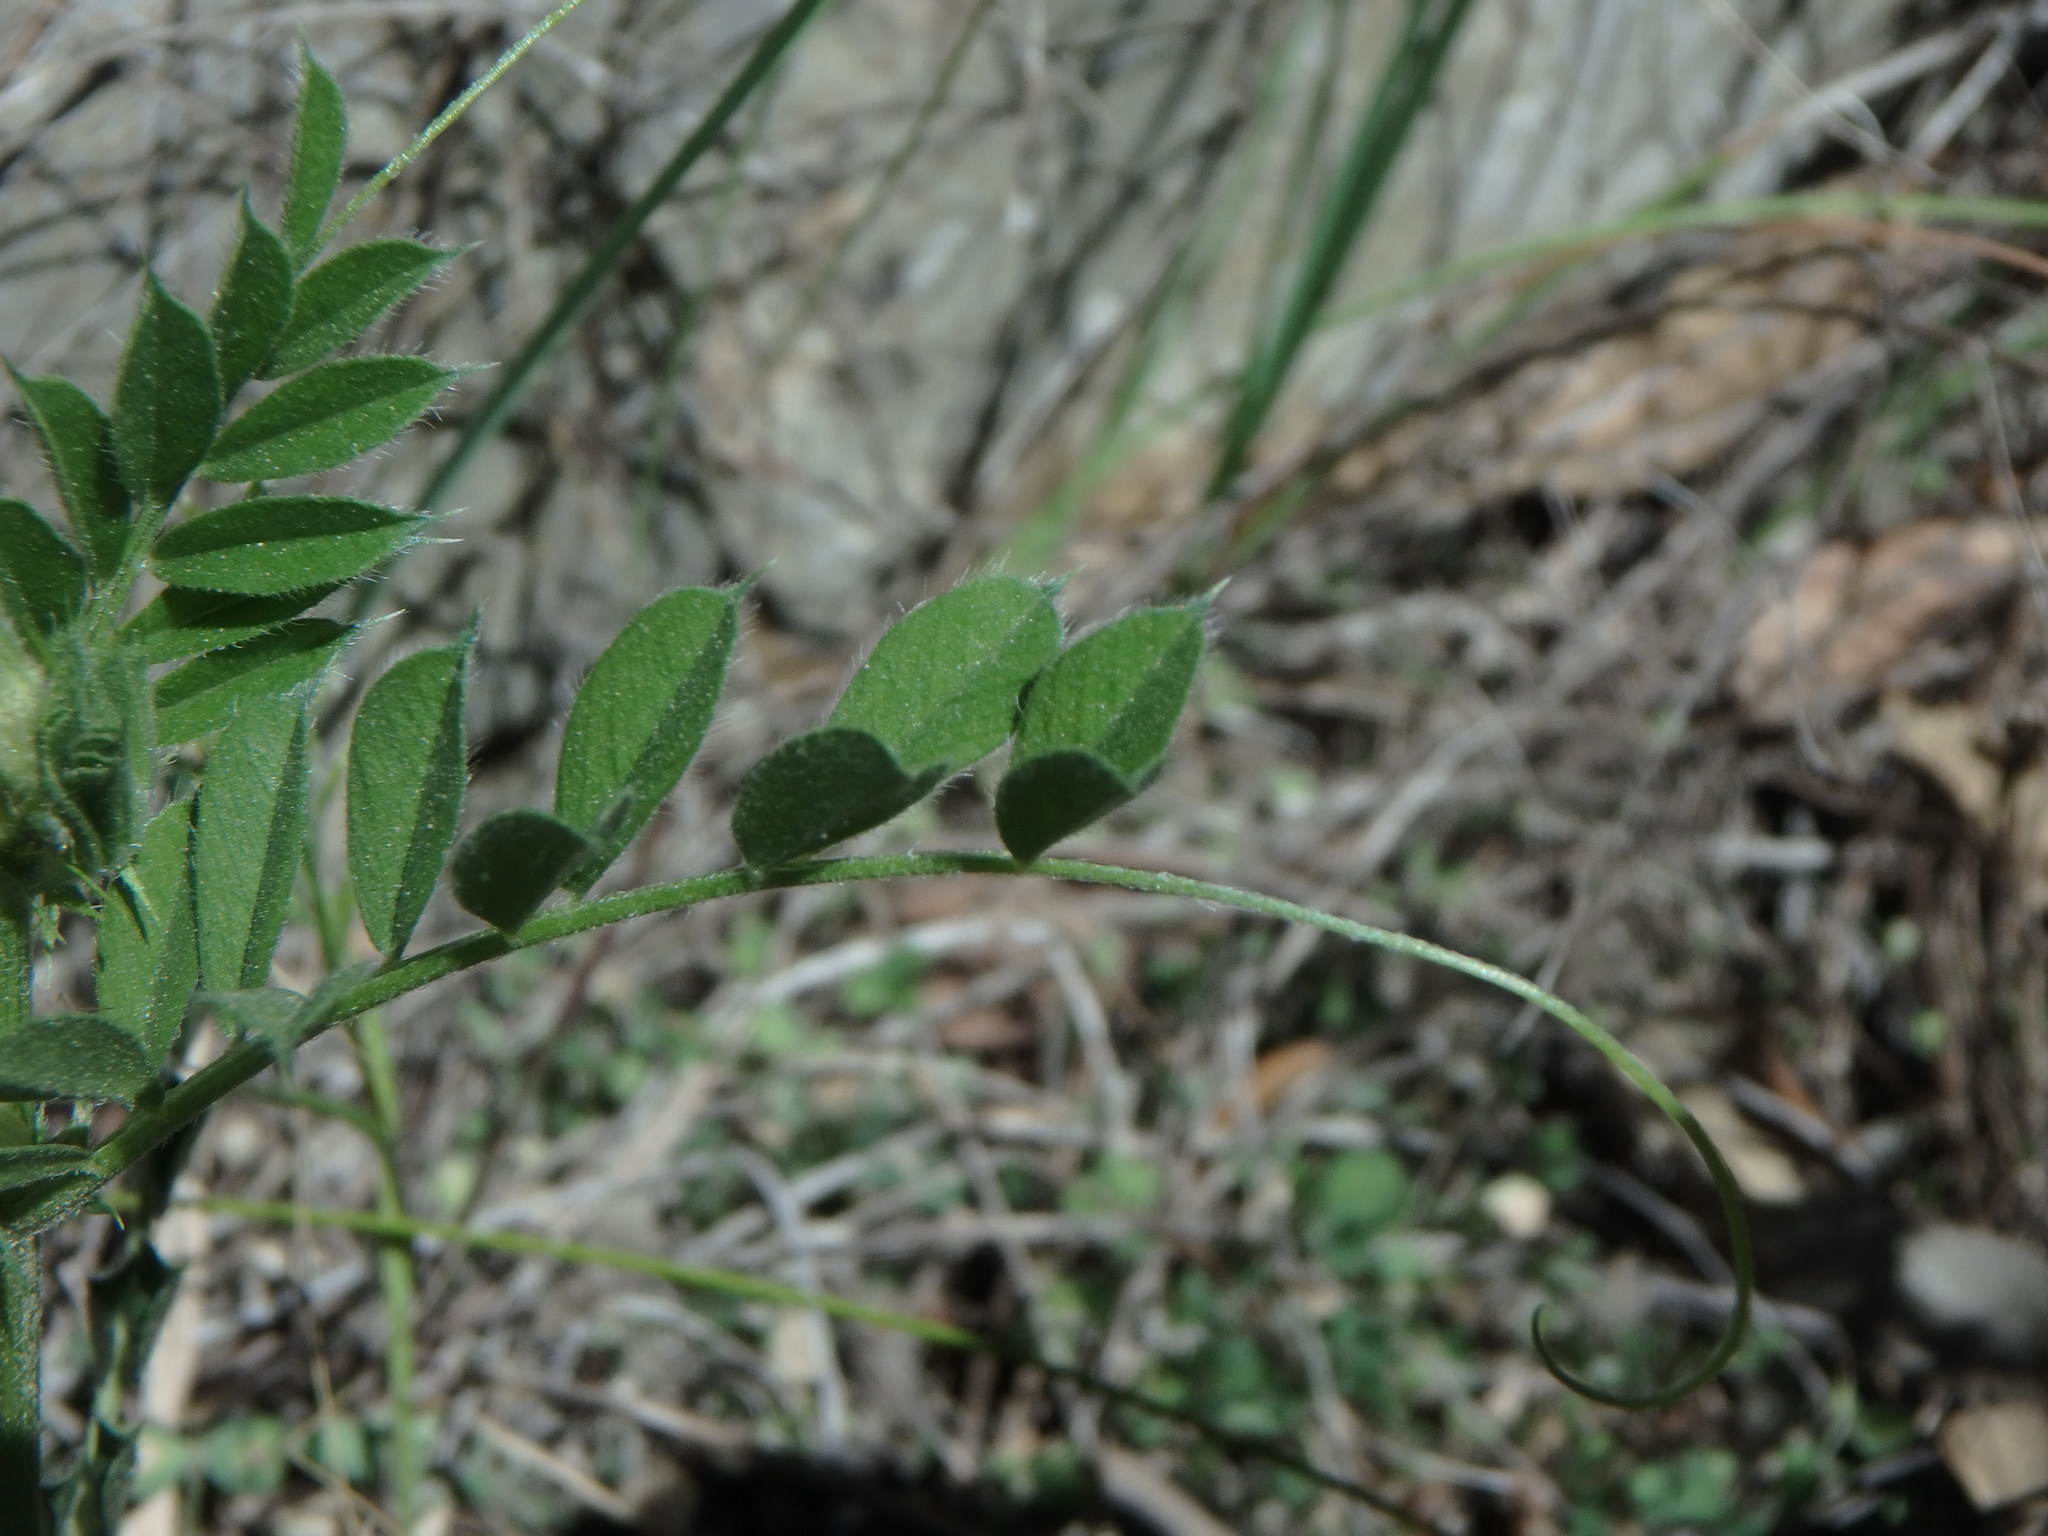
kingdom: Plantae
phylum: Tracheophyta
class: Magnoliopsida
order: Fabales
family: Fabaceae
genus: Vicia
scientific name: Vicia sativa
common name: Garden vetch
